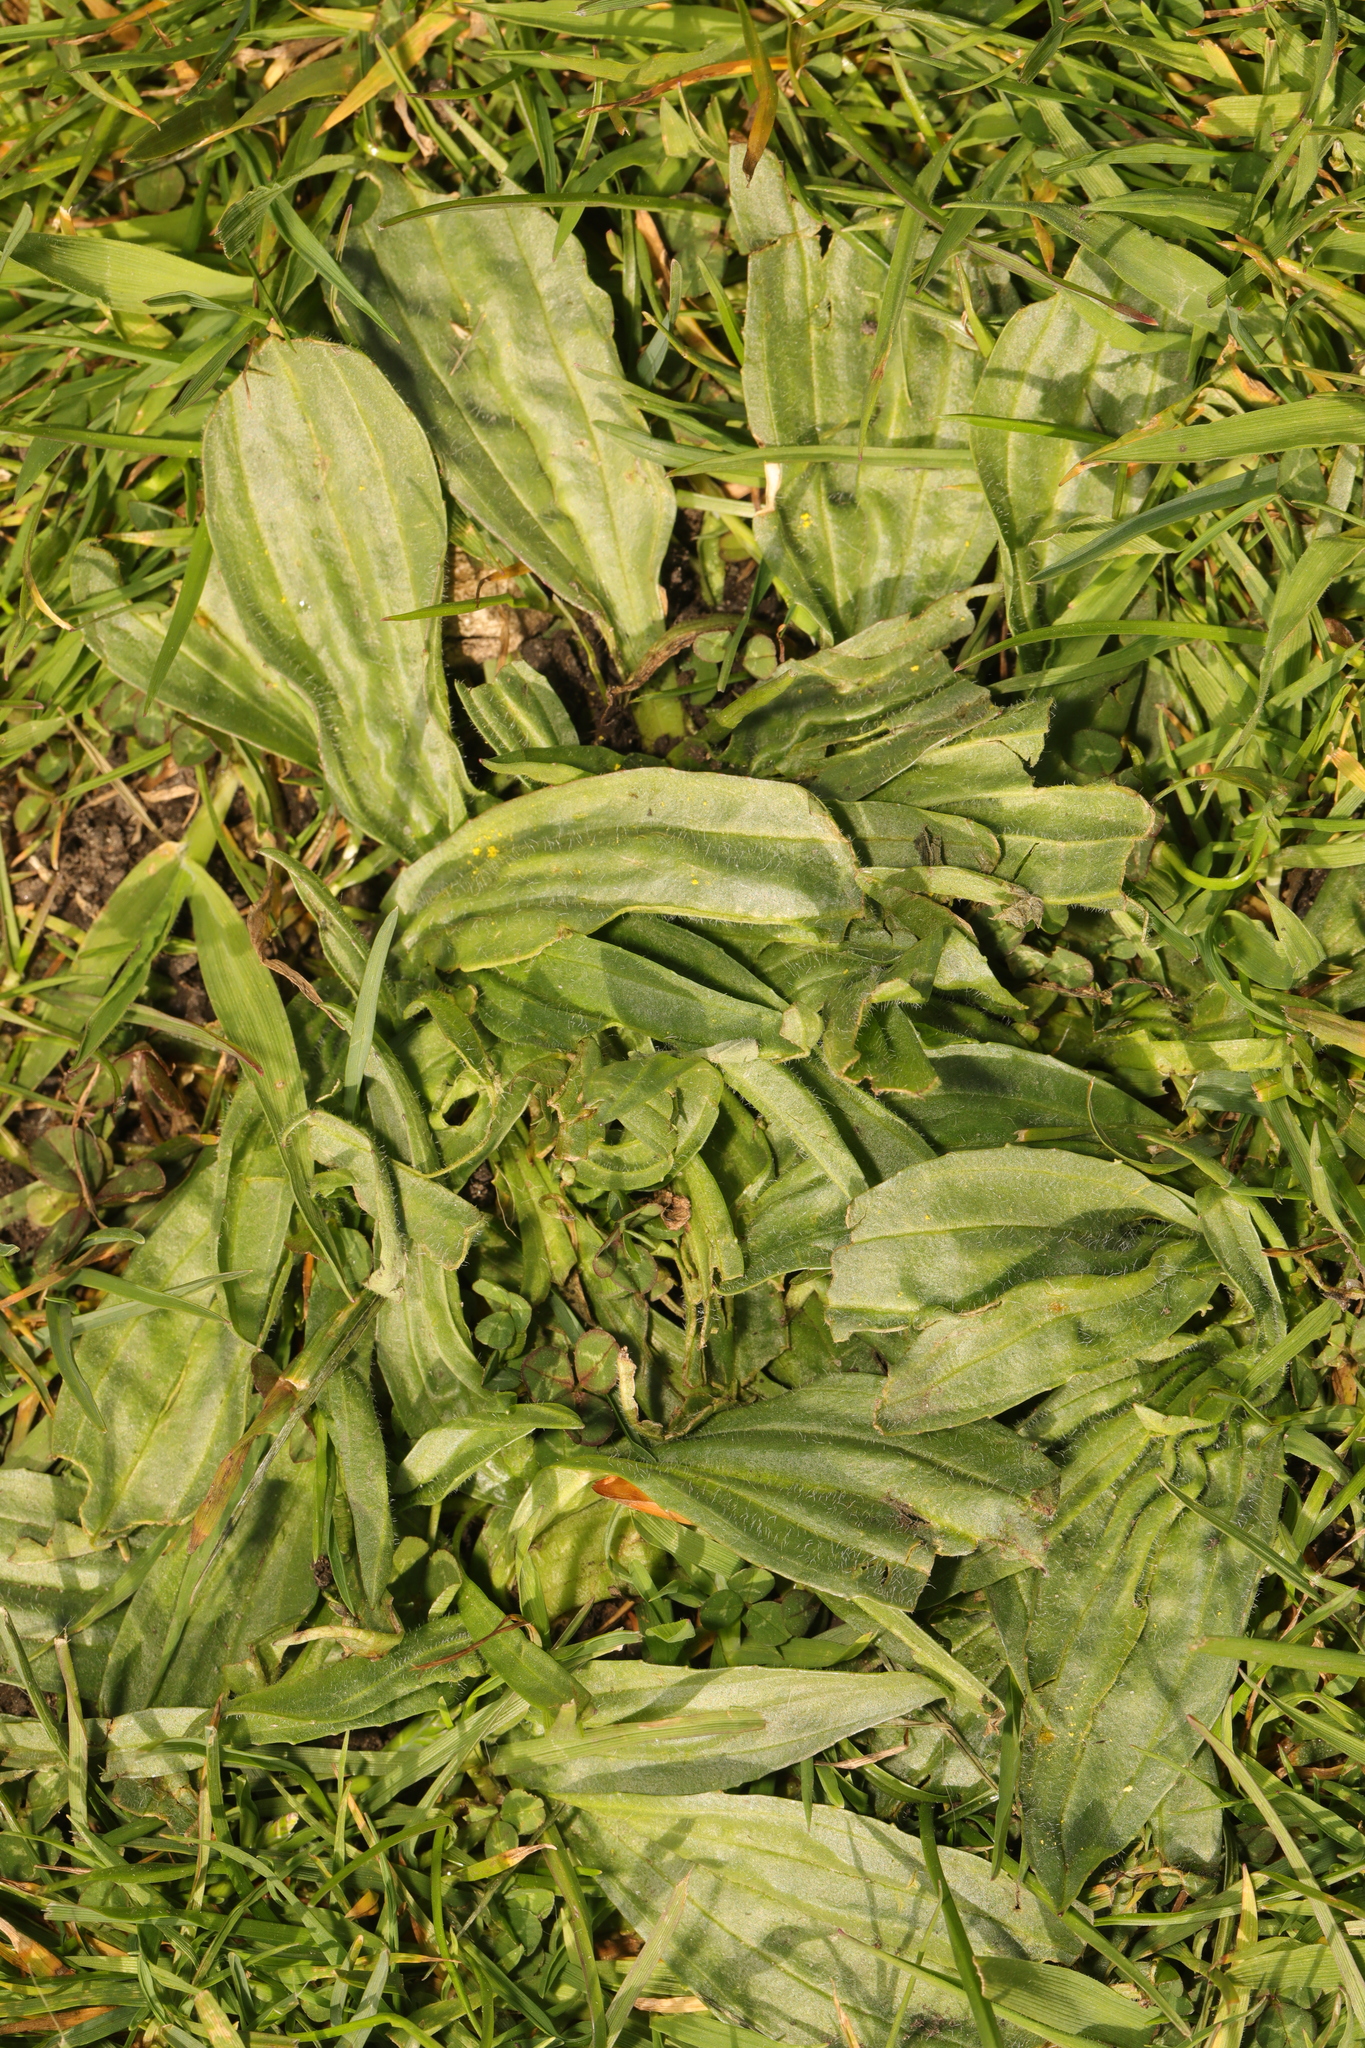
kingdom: Plantae
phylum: Tracheophyta
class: Magnoliopsida
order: Lamiales
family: Plantaginaceae
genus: Plantago
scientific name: Plantago lanceolata
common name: Ribwort plantain
